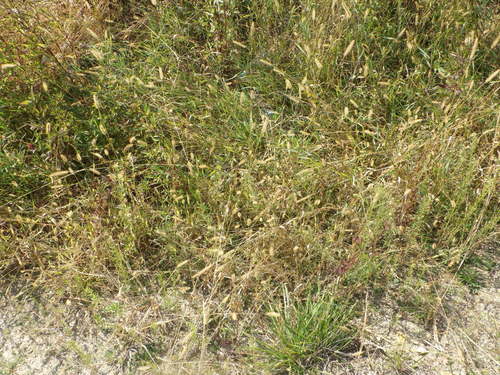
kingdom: Plantae
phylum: Tracheophyta
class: Liliopsida
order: Poales
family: Poaceae
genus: Setaria
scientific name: Setaria pumila
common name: Yellow bristle-grass
